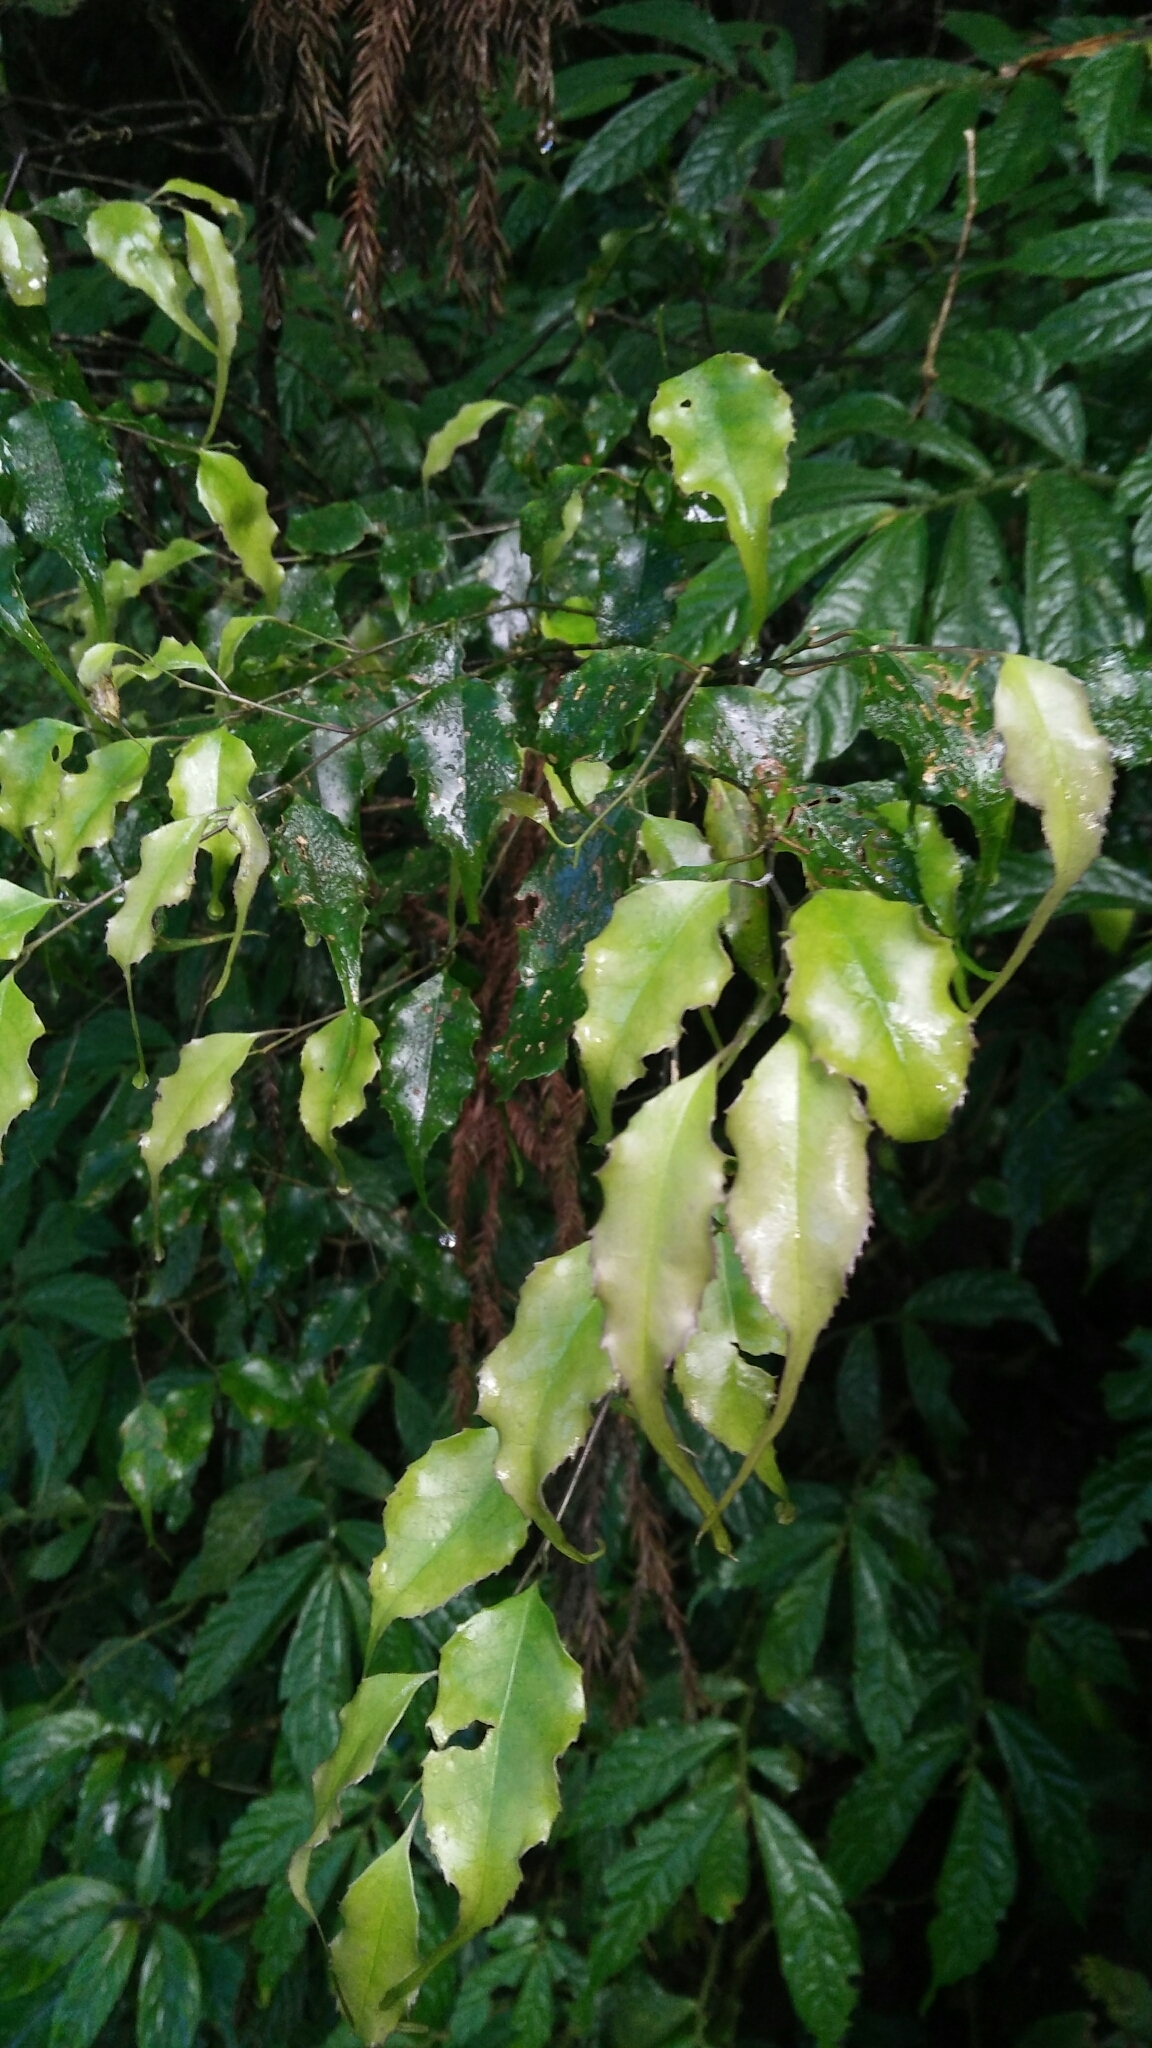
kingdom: Plantae
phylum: Tracheophyta
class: Magnoliopsida
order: Ericales
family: Symplocaceae
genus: Symplocos
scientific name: Symplocos sumuntia
